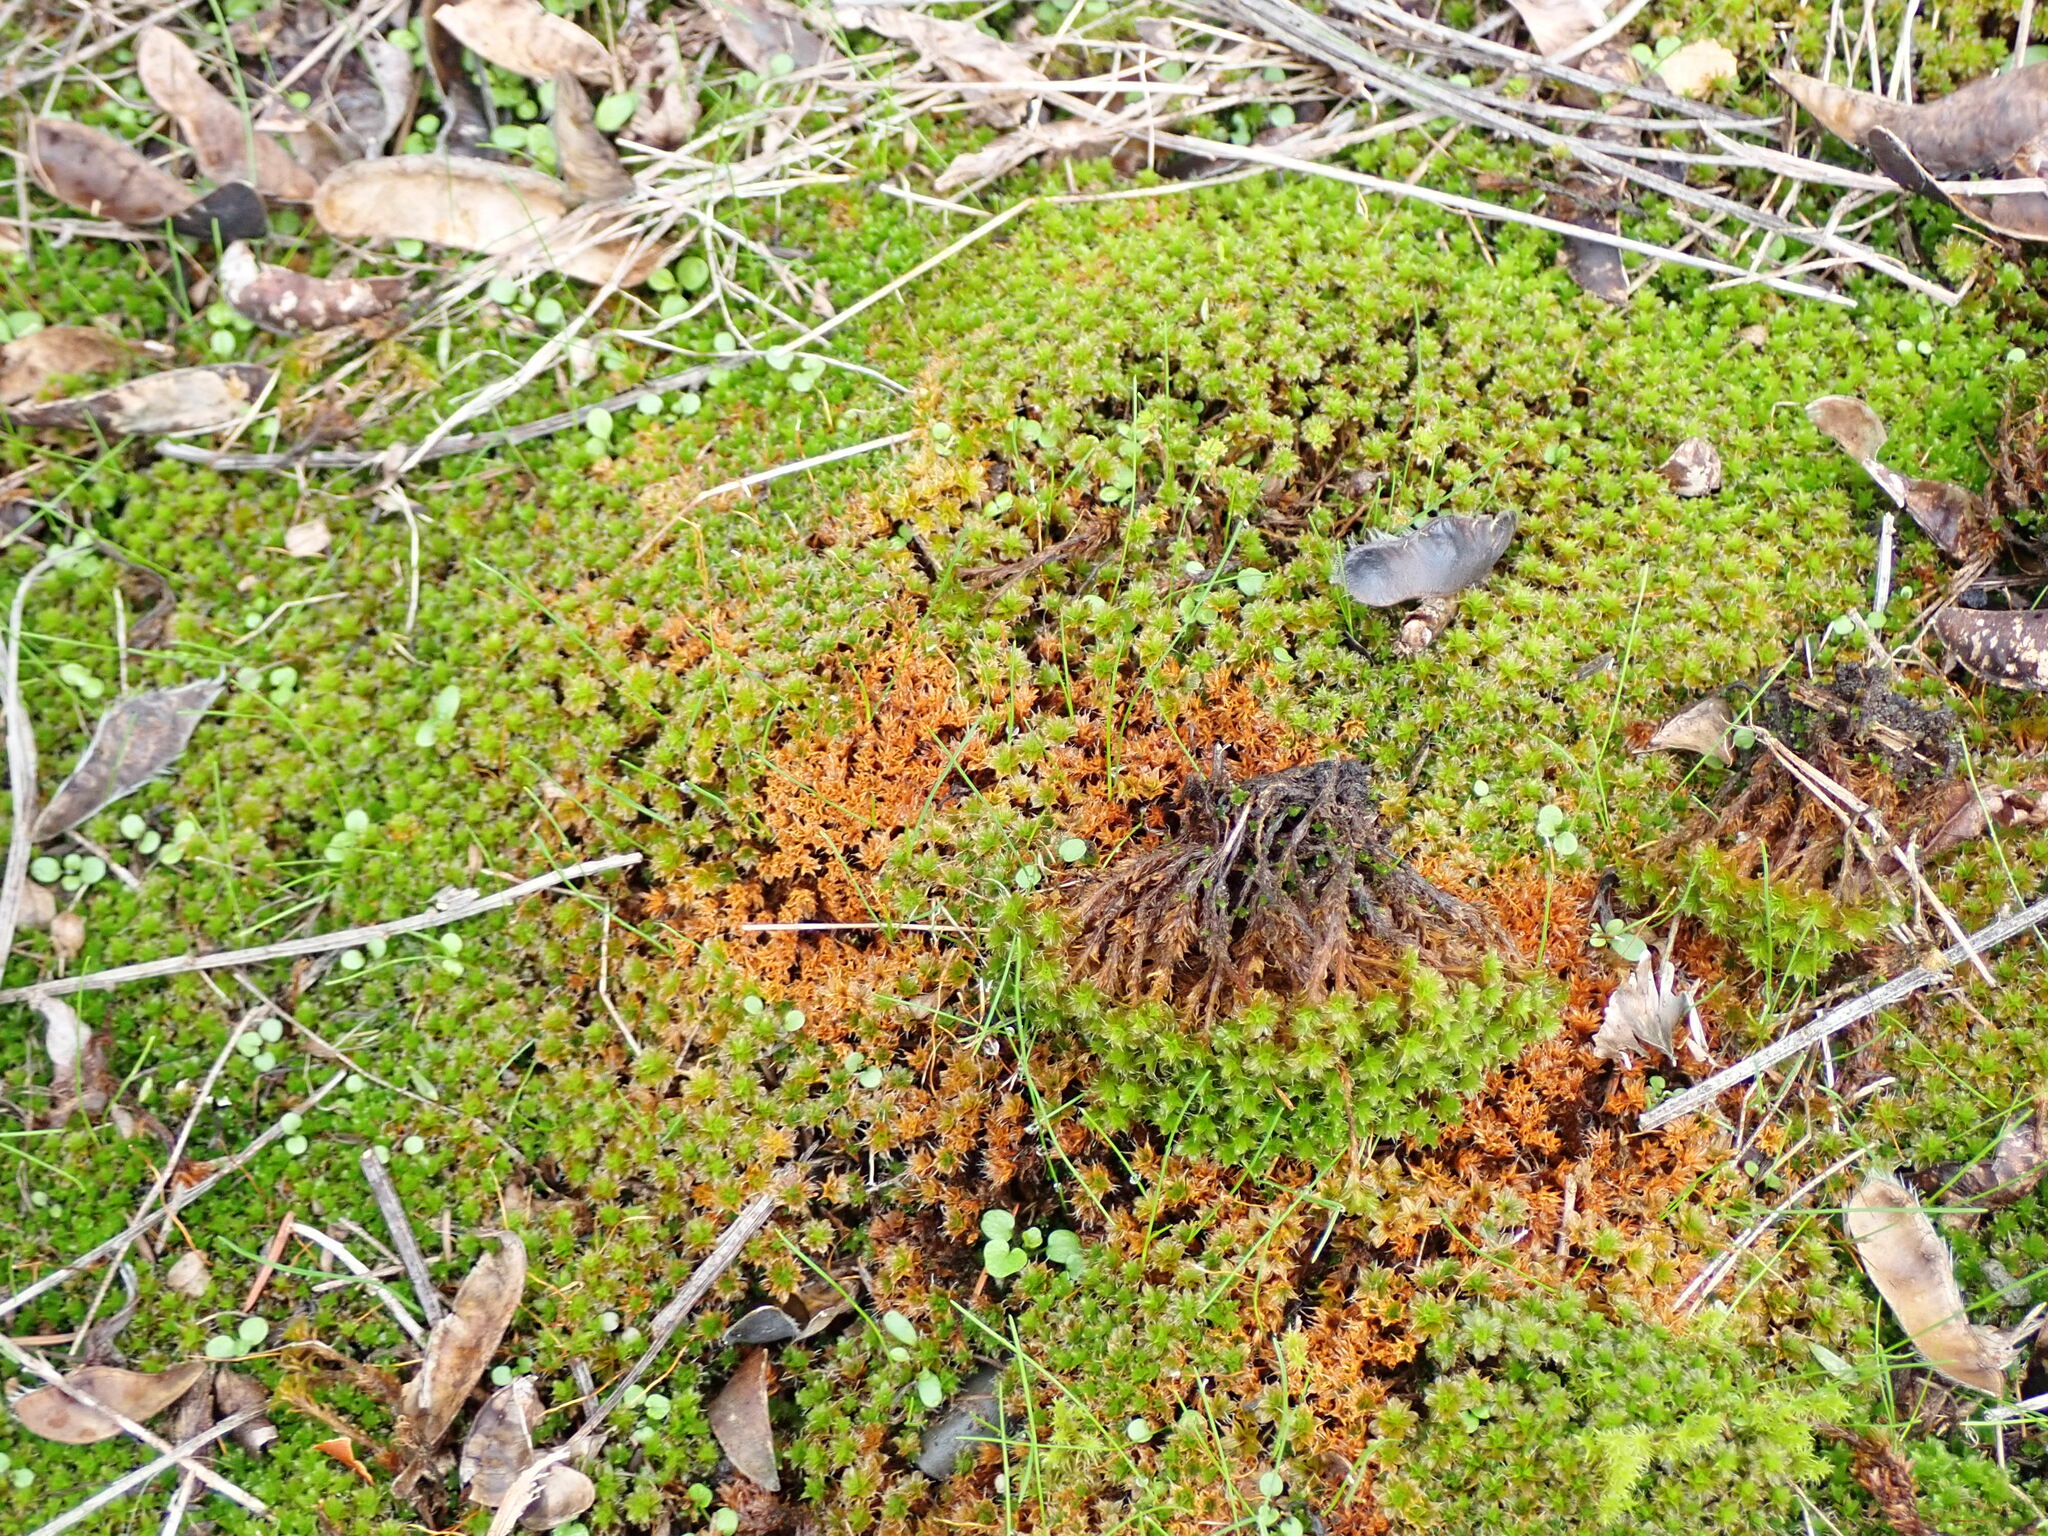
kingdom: Plantae
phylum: Bryophyta
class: Bryopsida
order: Pottiales
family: Pottiaceae
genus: Syntrichia
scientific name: Syntrichia princeps
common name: Brown screw-moss
